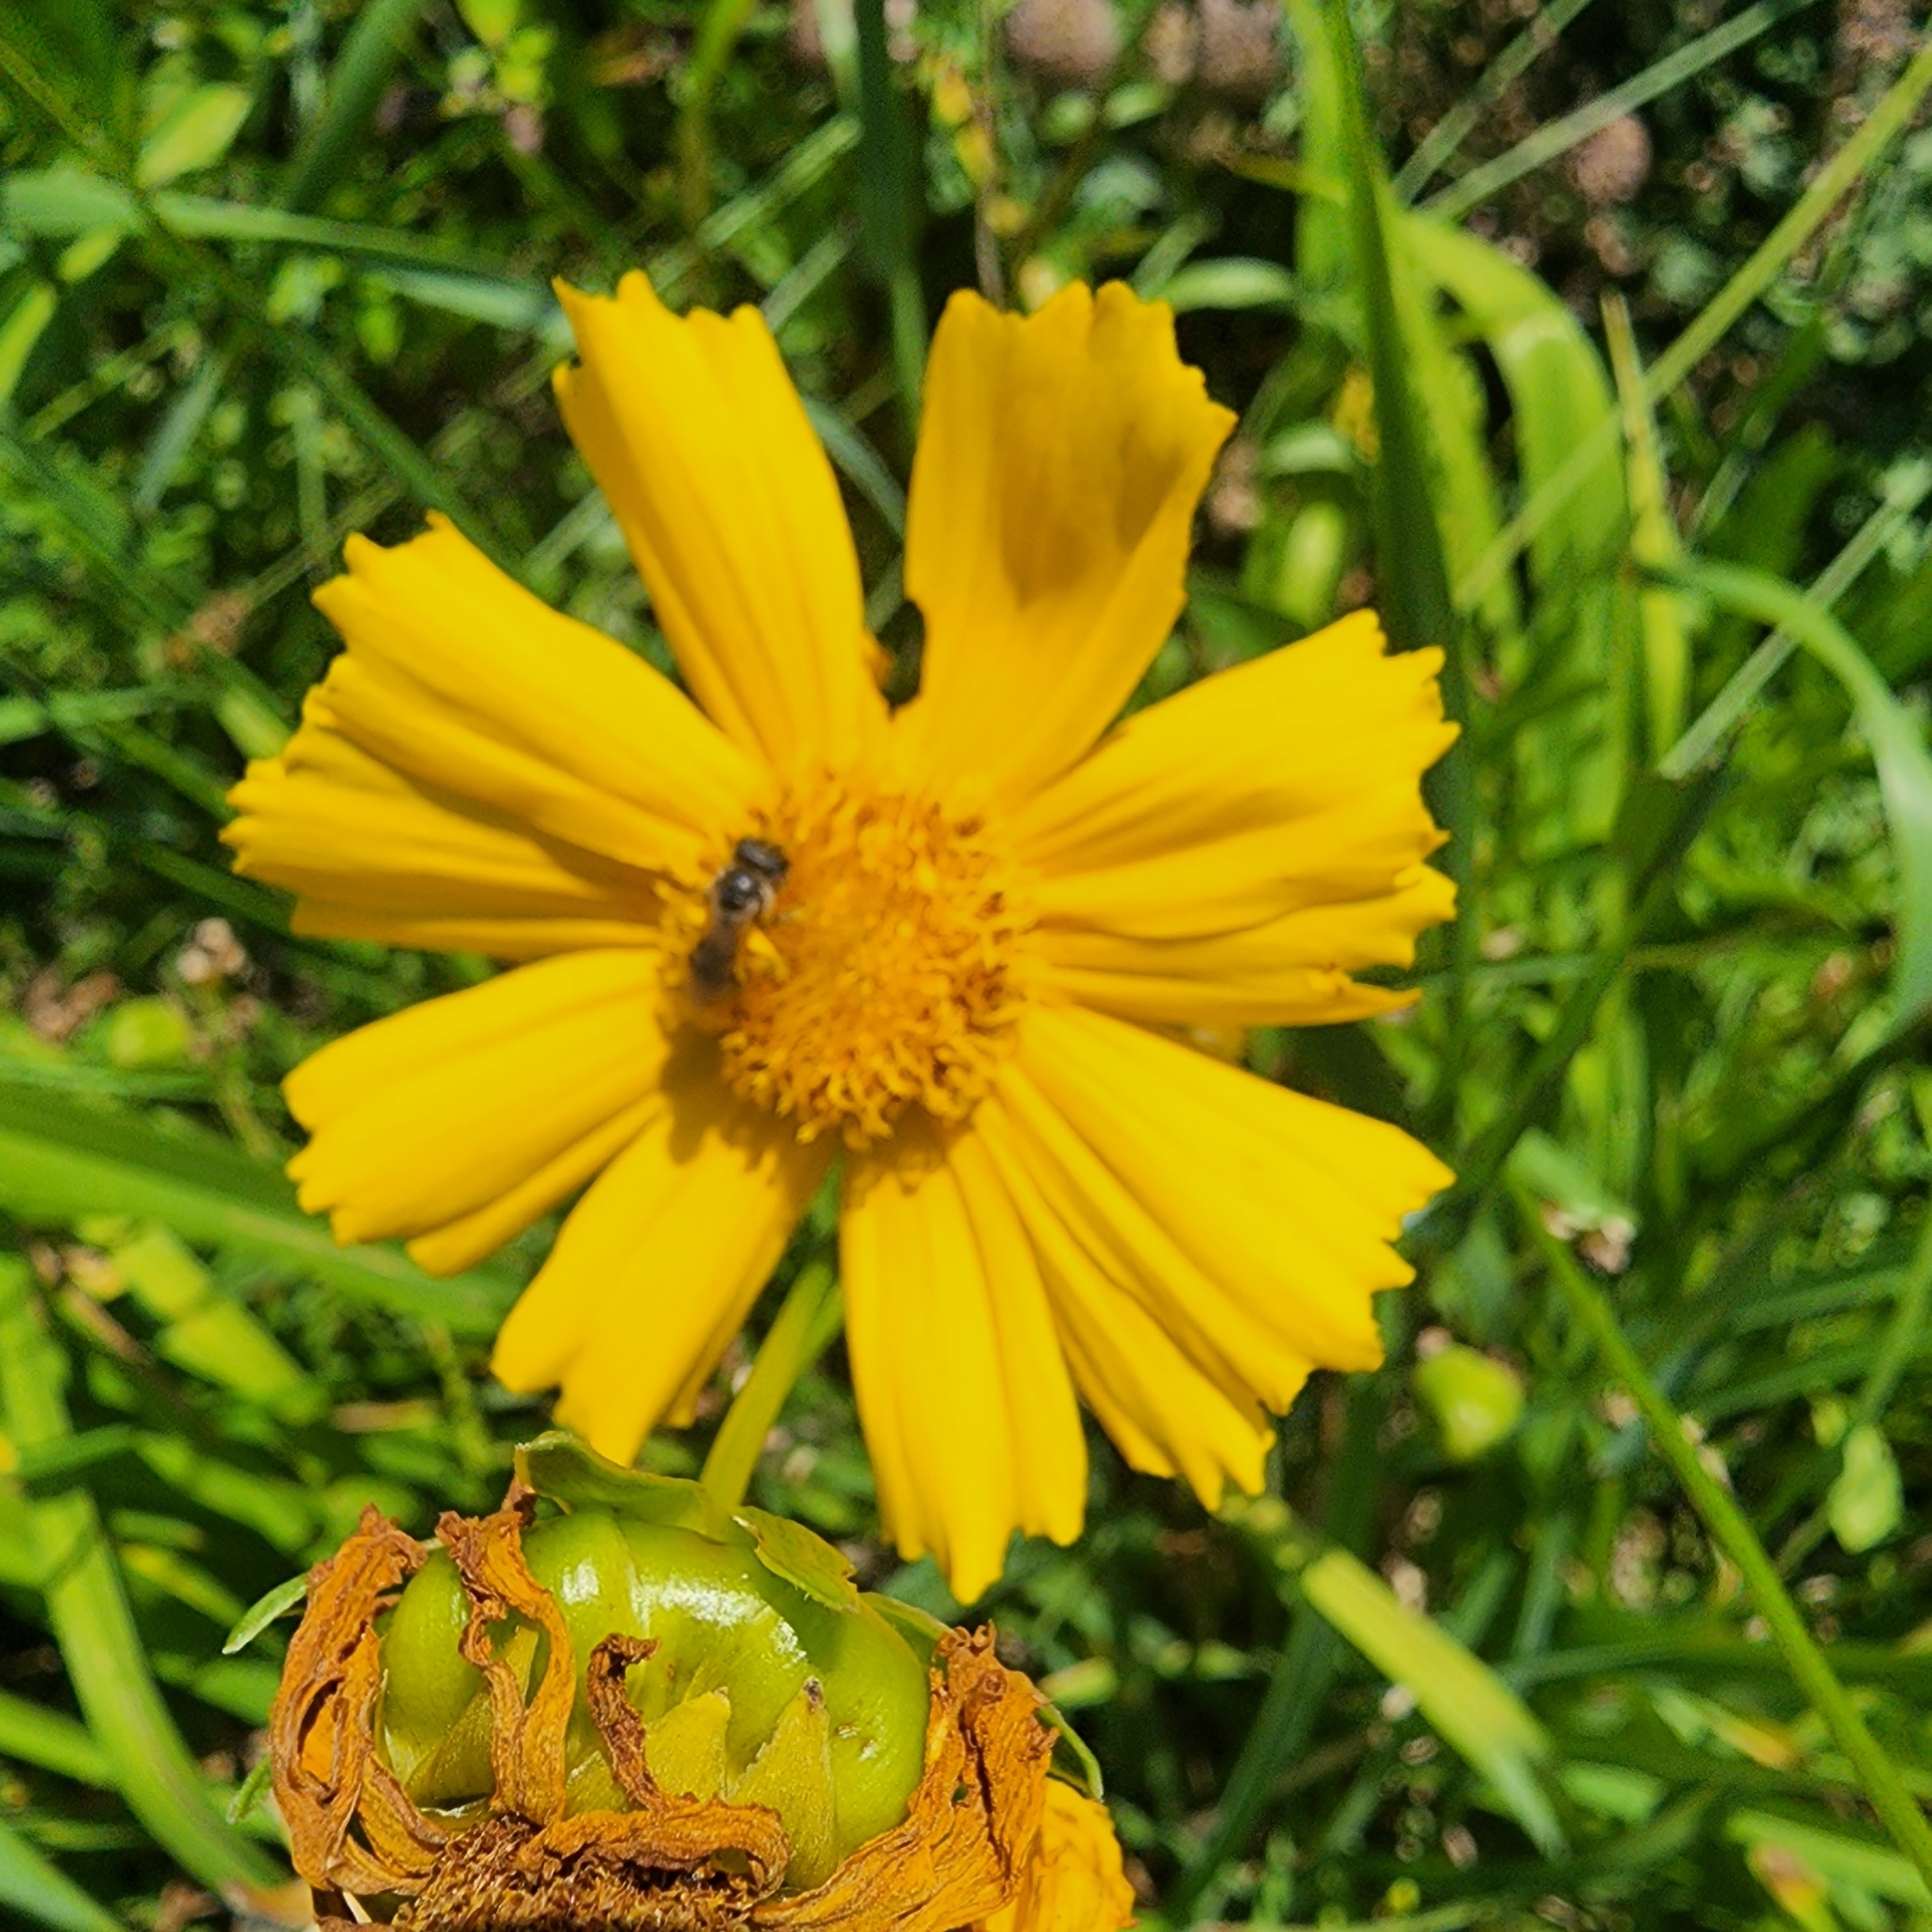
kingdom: Plantae
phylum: Tracheophyta
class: Magnoliopsida
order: Asterales
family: Asteraceae
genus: Coreopsis
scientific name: Coreopsis lanceolata
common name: Garden coreopsis
